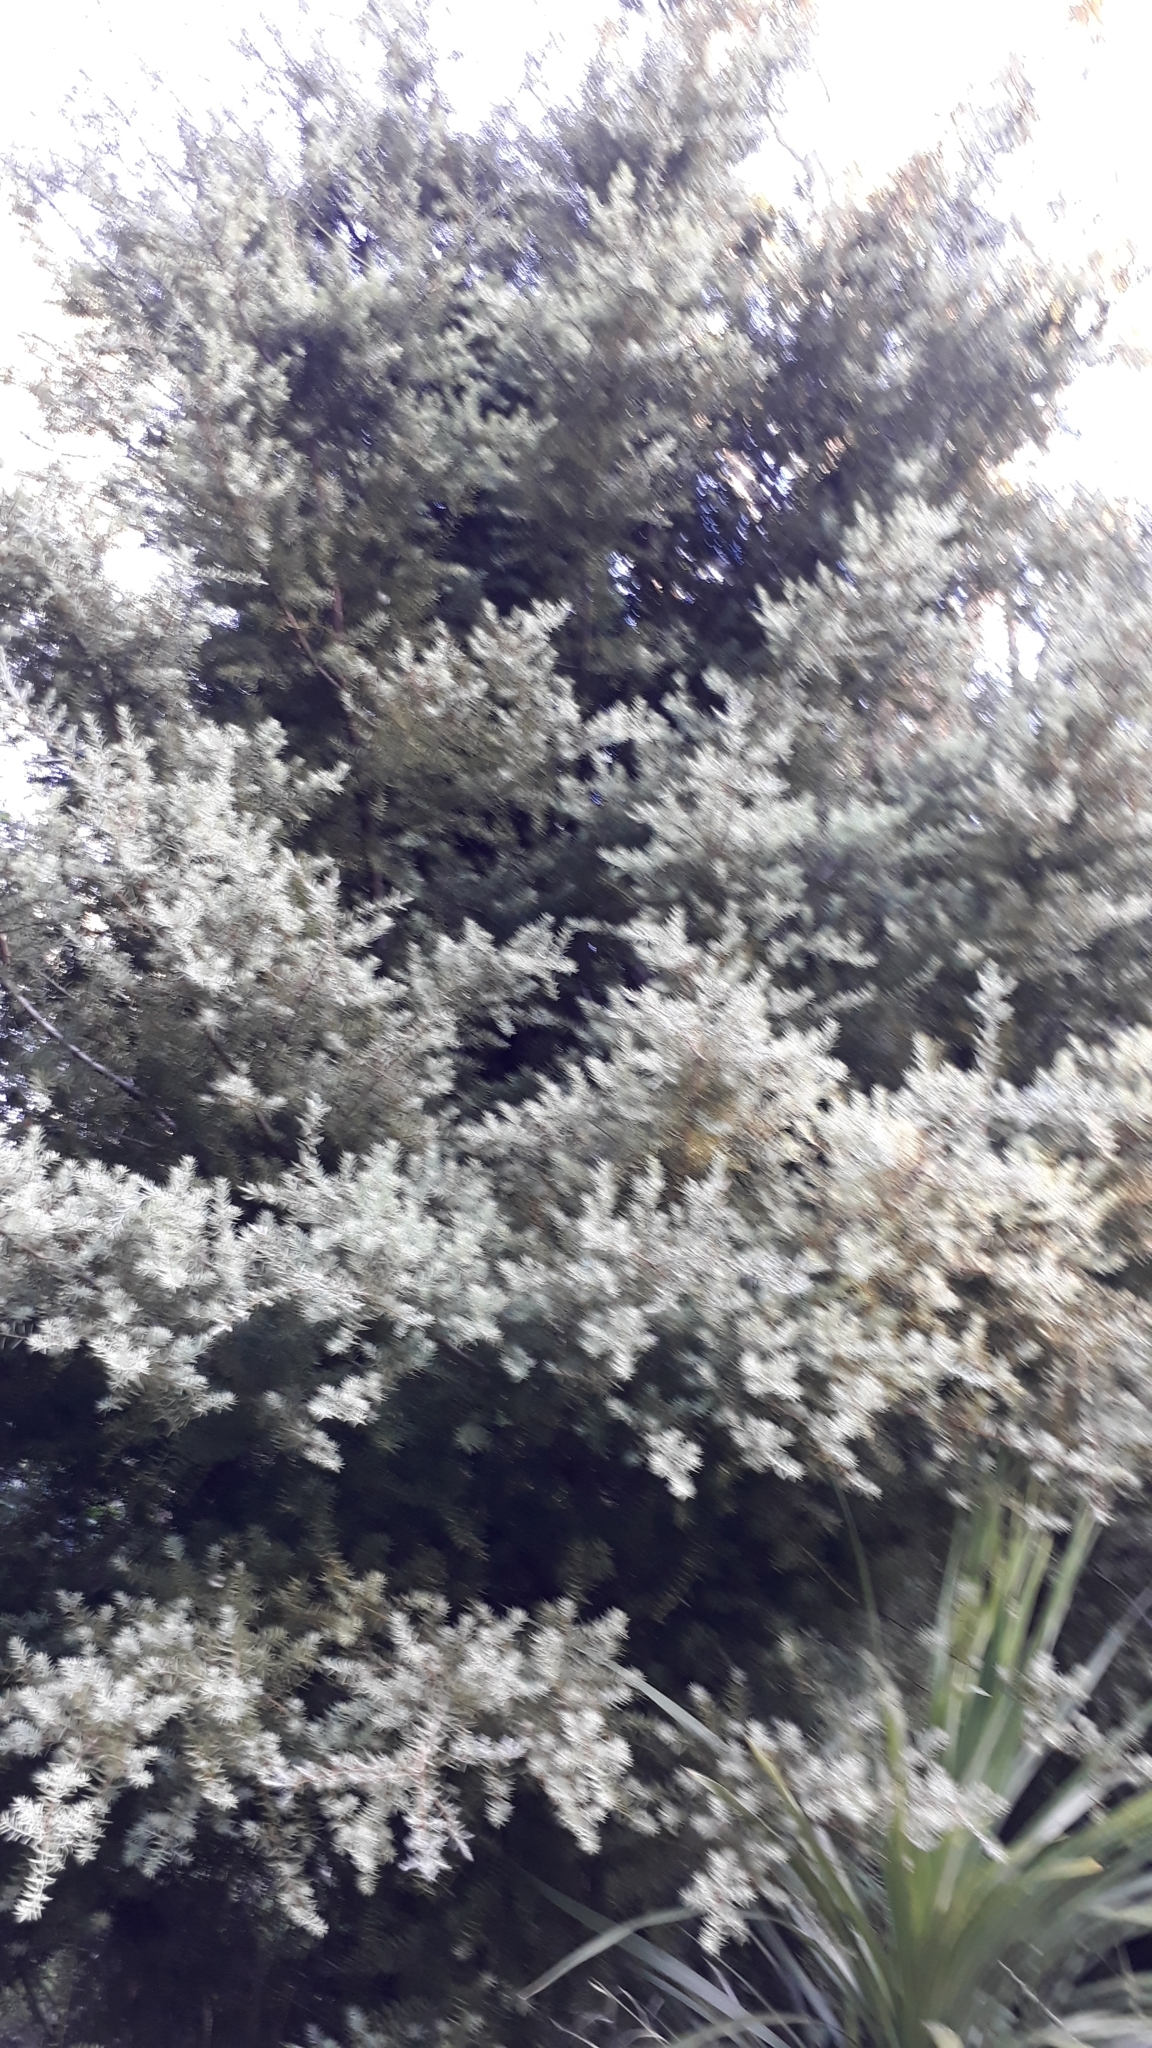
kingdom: Plantae
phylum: Tracheophyta
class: Pinopsida
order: Pinales
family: Podocarpaceae
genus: Podocarpus
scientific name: Podocarpus totara
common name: Totara
